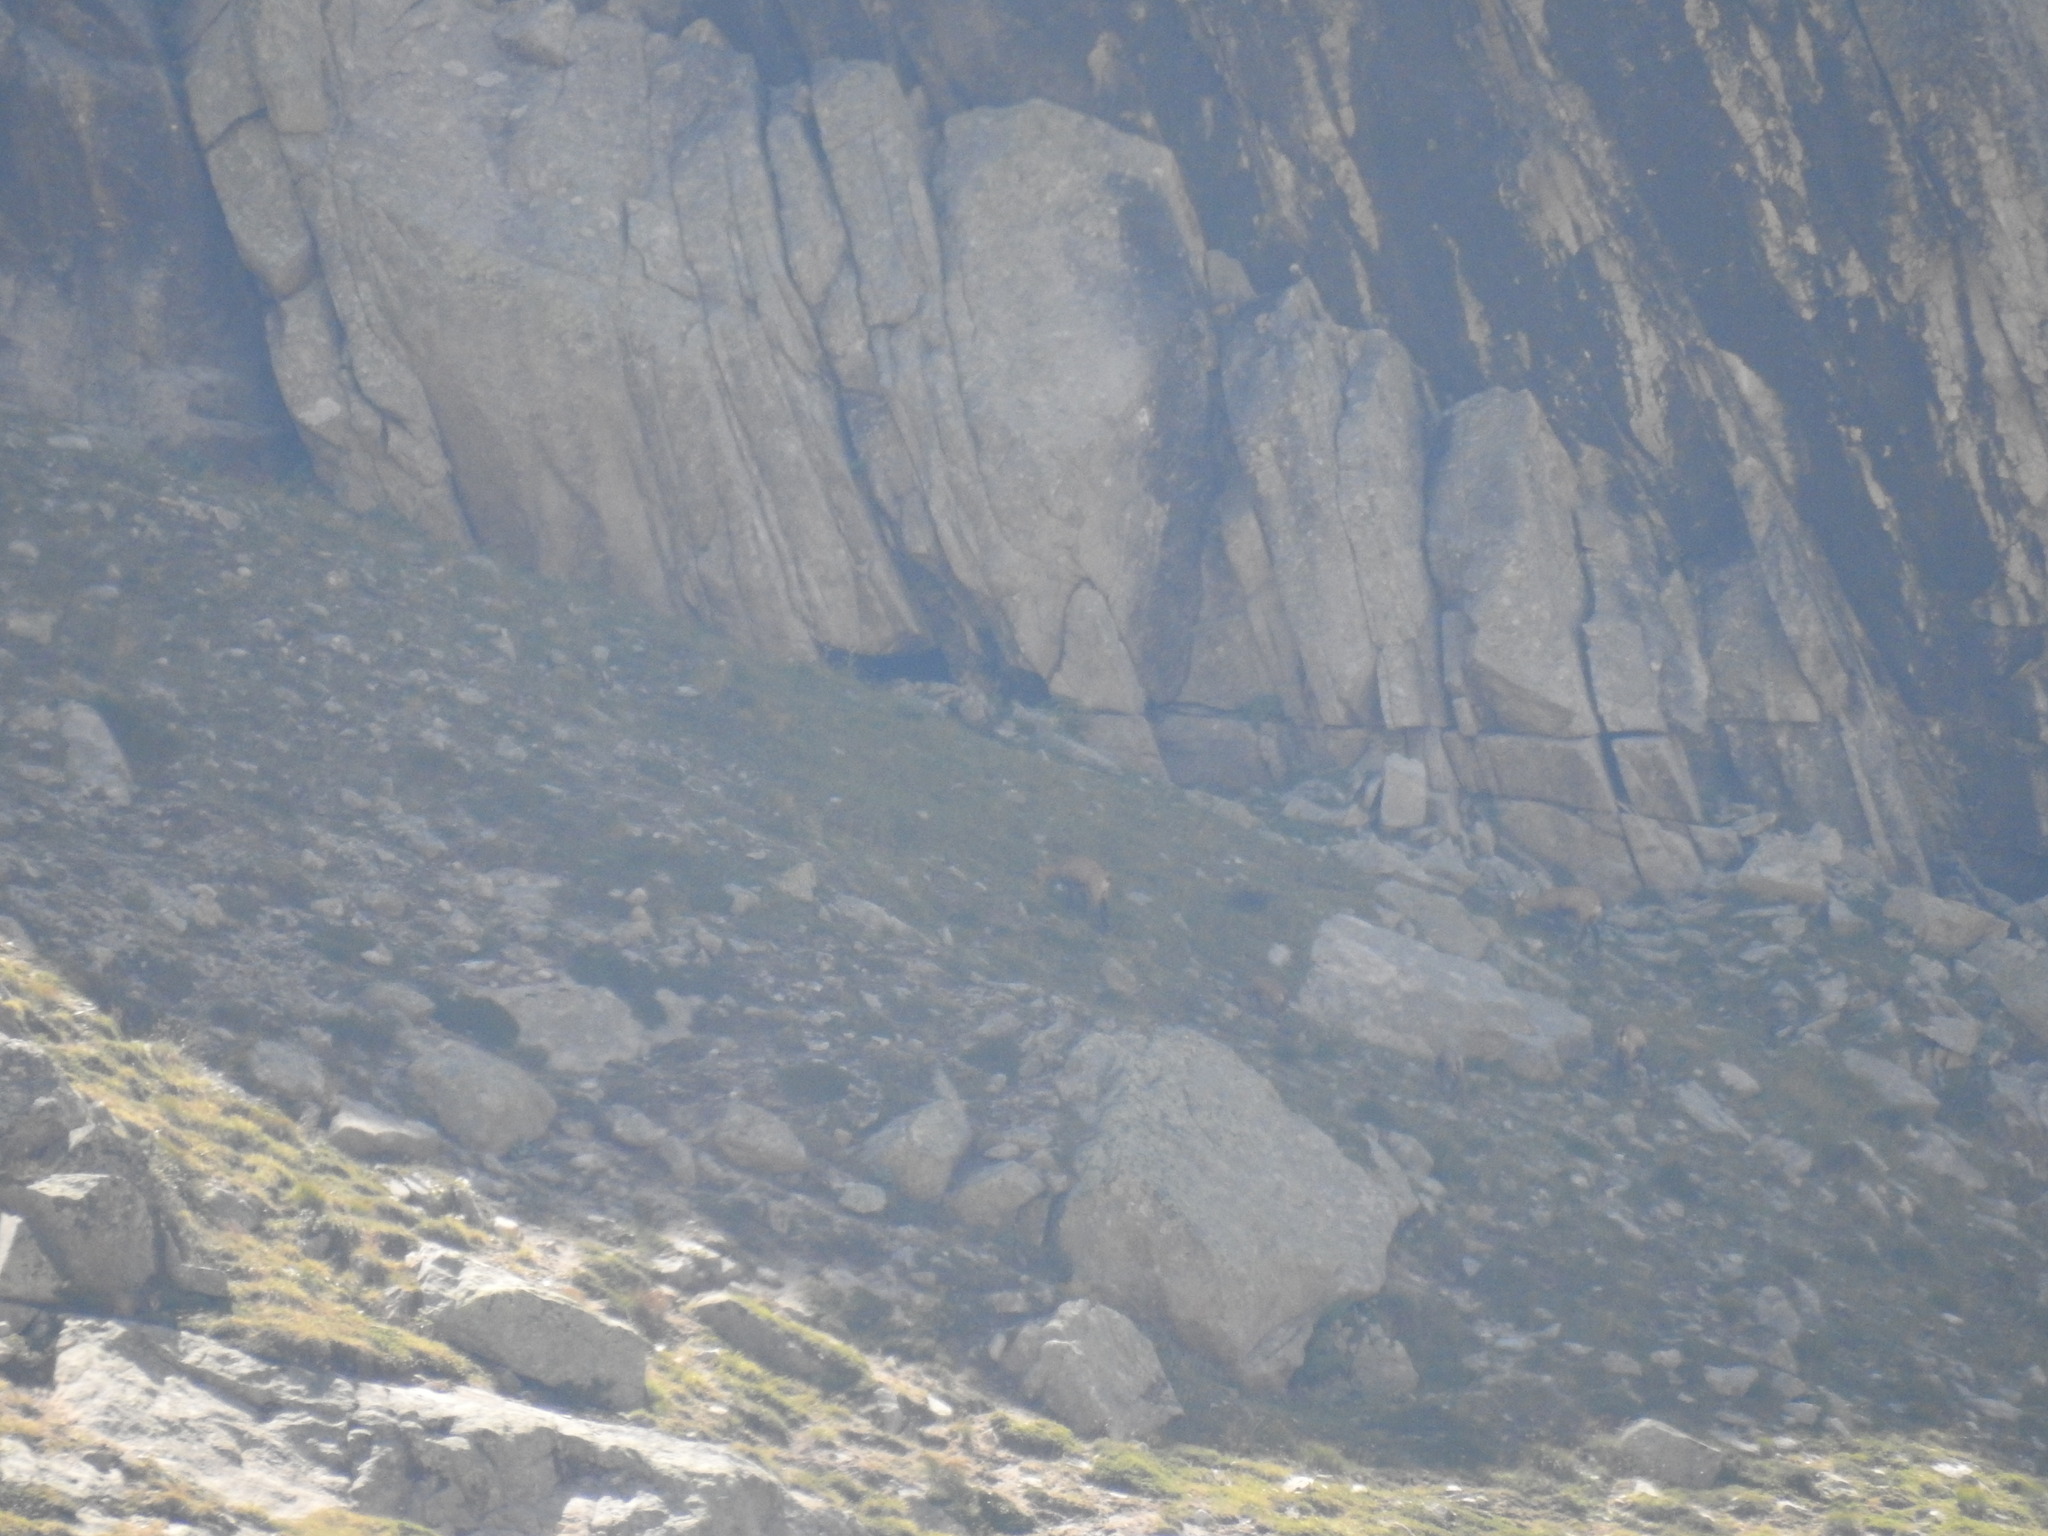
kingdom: Animalia
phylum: Chordata
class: Mammalia
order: Artiodactyla
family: Bovidae
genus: Rupicapra
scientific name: Rupicapra rupicapra
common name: Chamois
